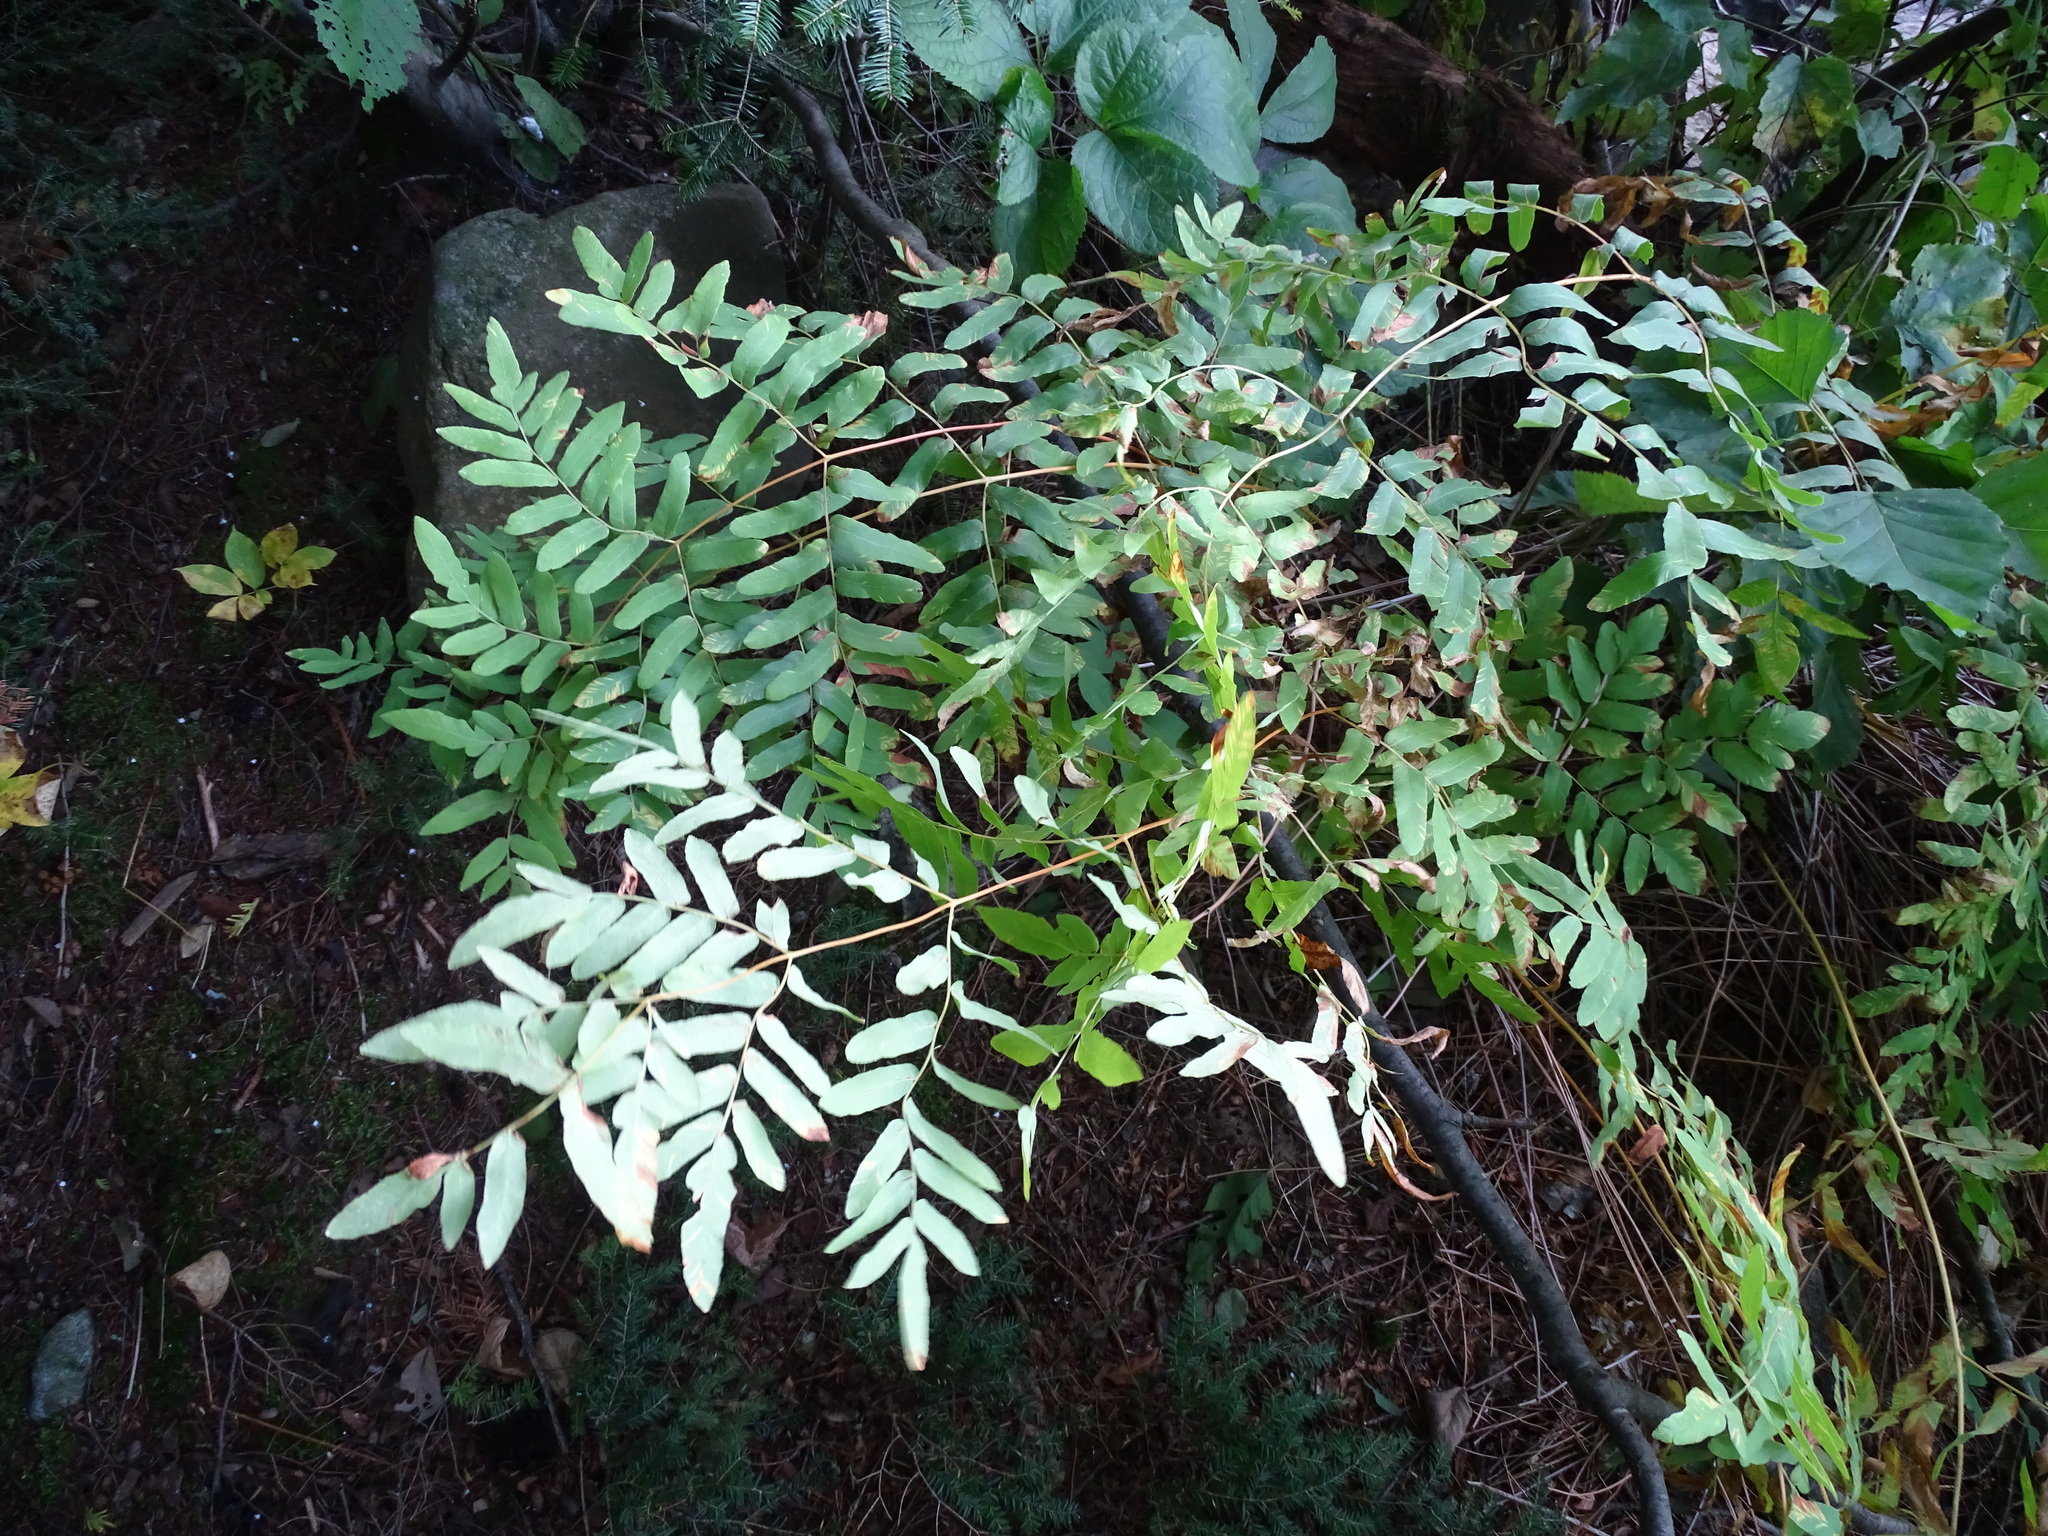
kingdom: Plantae
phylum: Tracheophyta
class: Polypodiopsida
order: Osmundales
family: Osmundaceae
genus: Osmunda
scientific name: Osmunda spectabilis
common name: American royal fern
